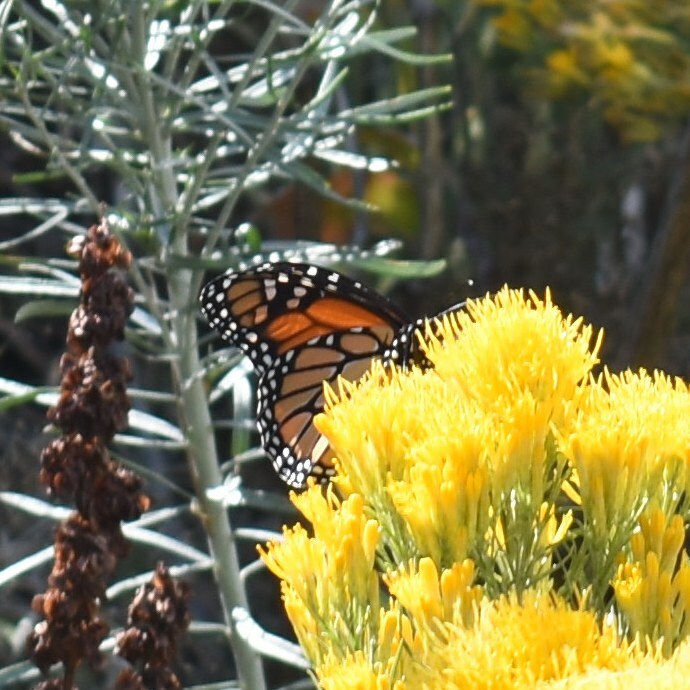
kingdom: Animalia
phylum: Arthropoda
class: Insecta
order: Lepidoptera
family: Nymphalidae
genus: Danaus
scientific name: Danaus plexippus
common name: Monarch
